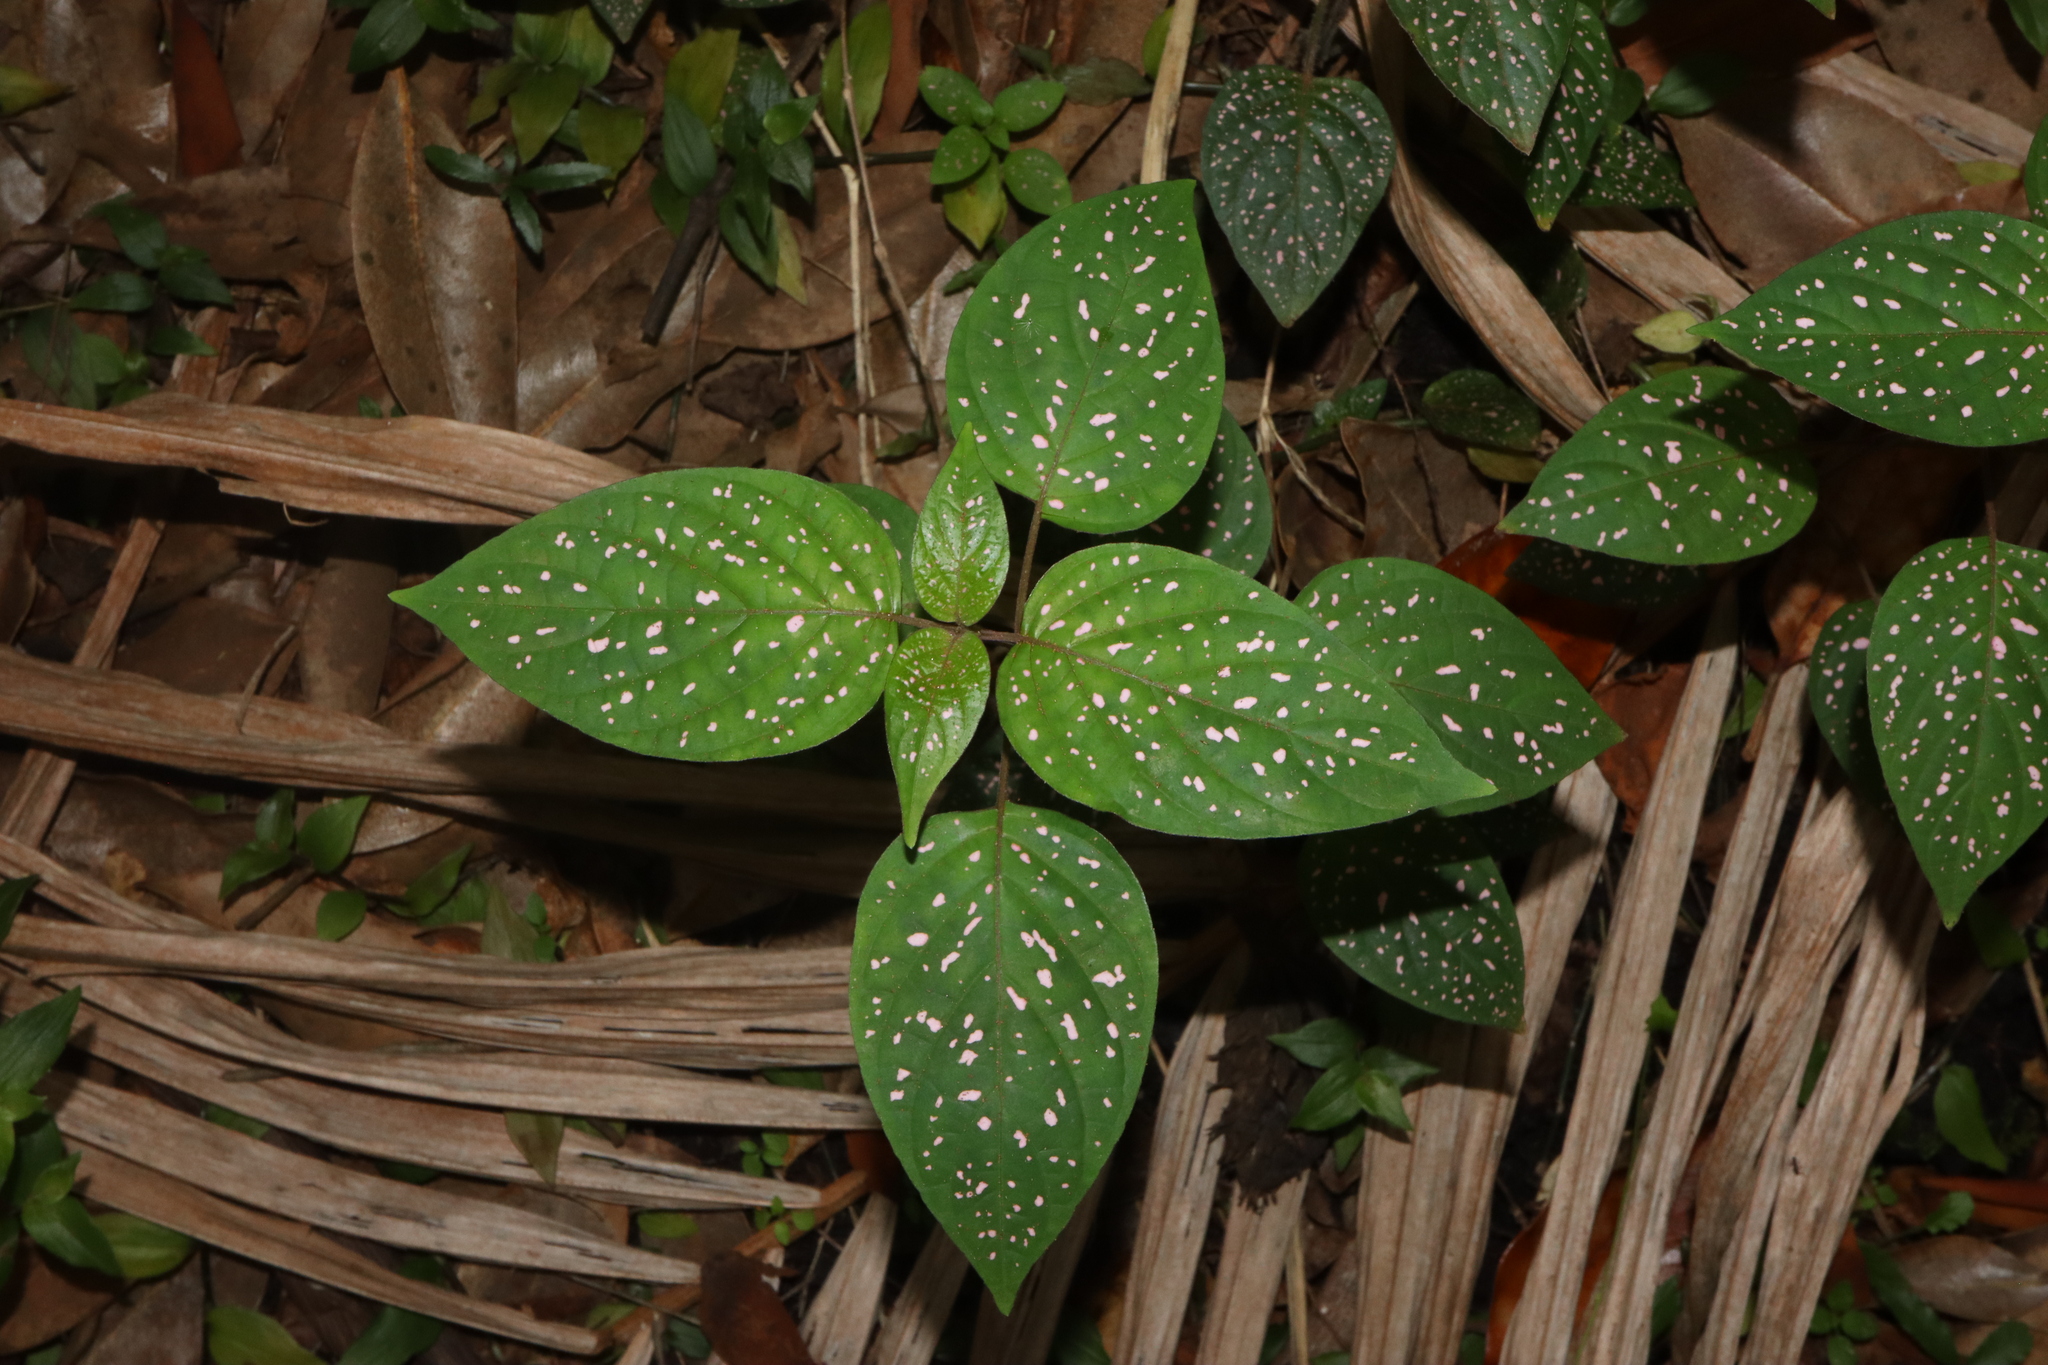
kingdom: Plantae
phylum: Tracheophyta
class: Magnoliopsida
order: Lamiales
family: Acanthaceae
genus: Hypoestes
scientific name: Hypoestes phyllostachya
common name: Polkadot-plant
